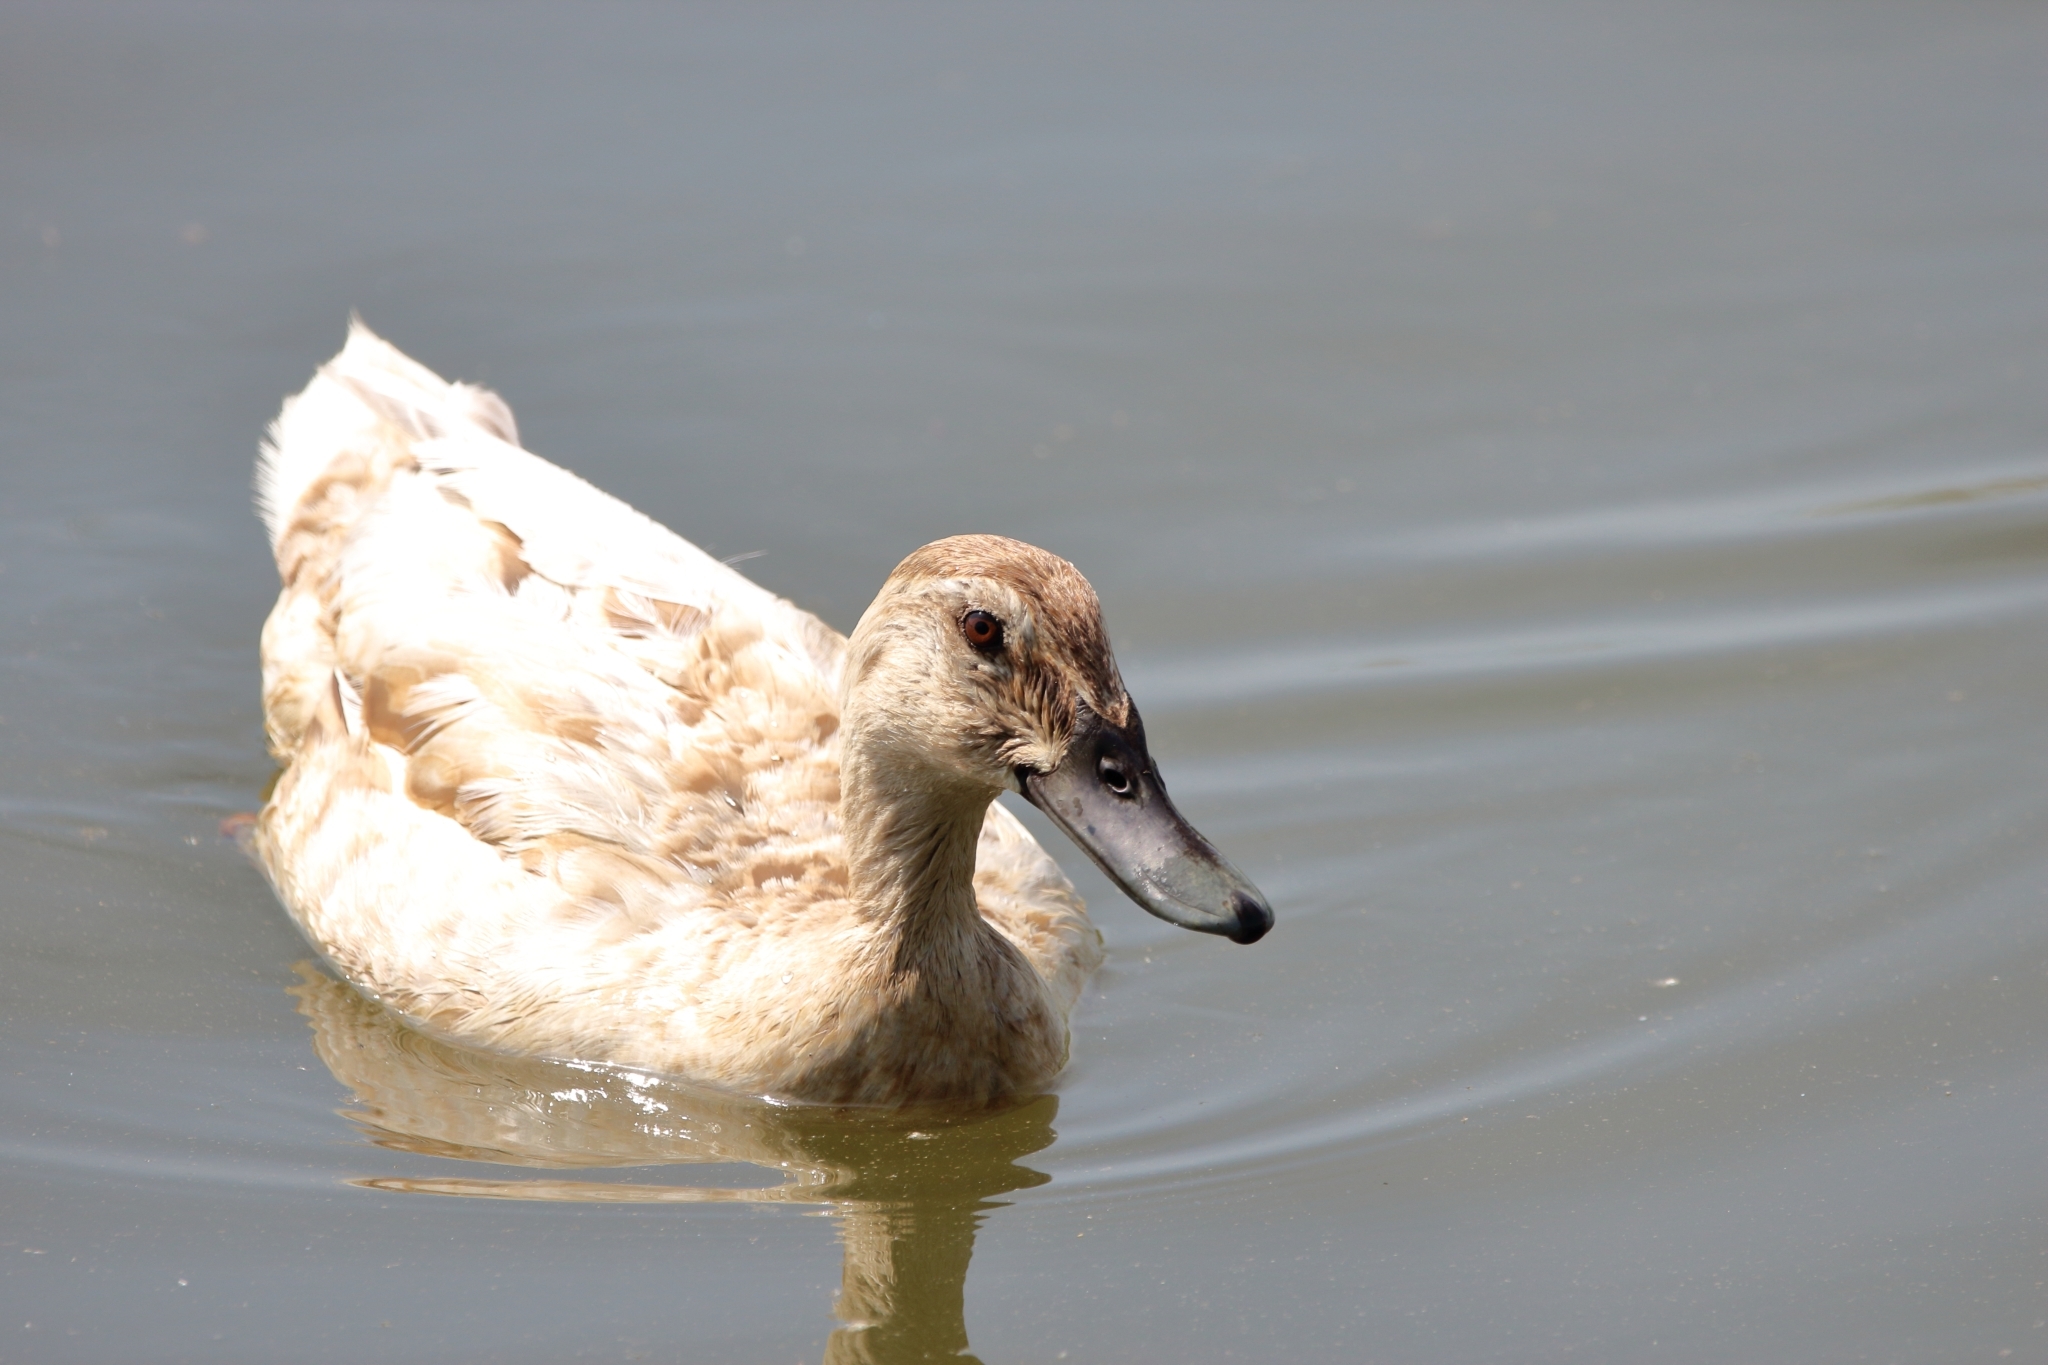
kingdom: Animalia
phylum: Chordata
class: Aves
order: Anseriformes
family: Anatidae
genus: Anas
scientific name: Anas platyrhynchos
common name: Mallard
